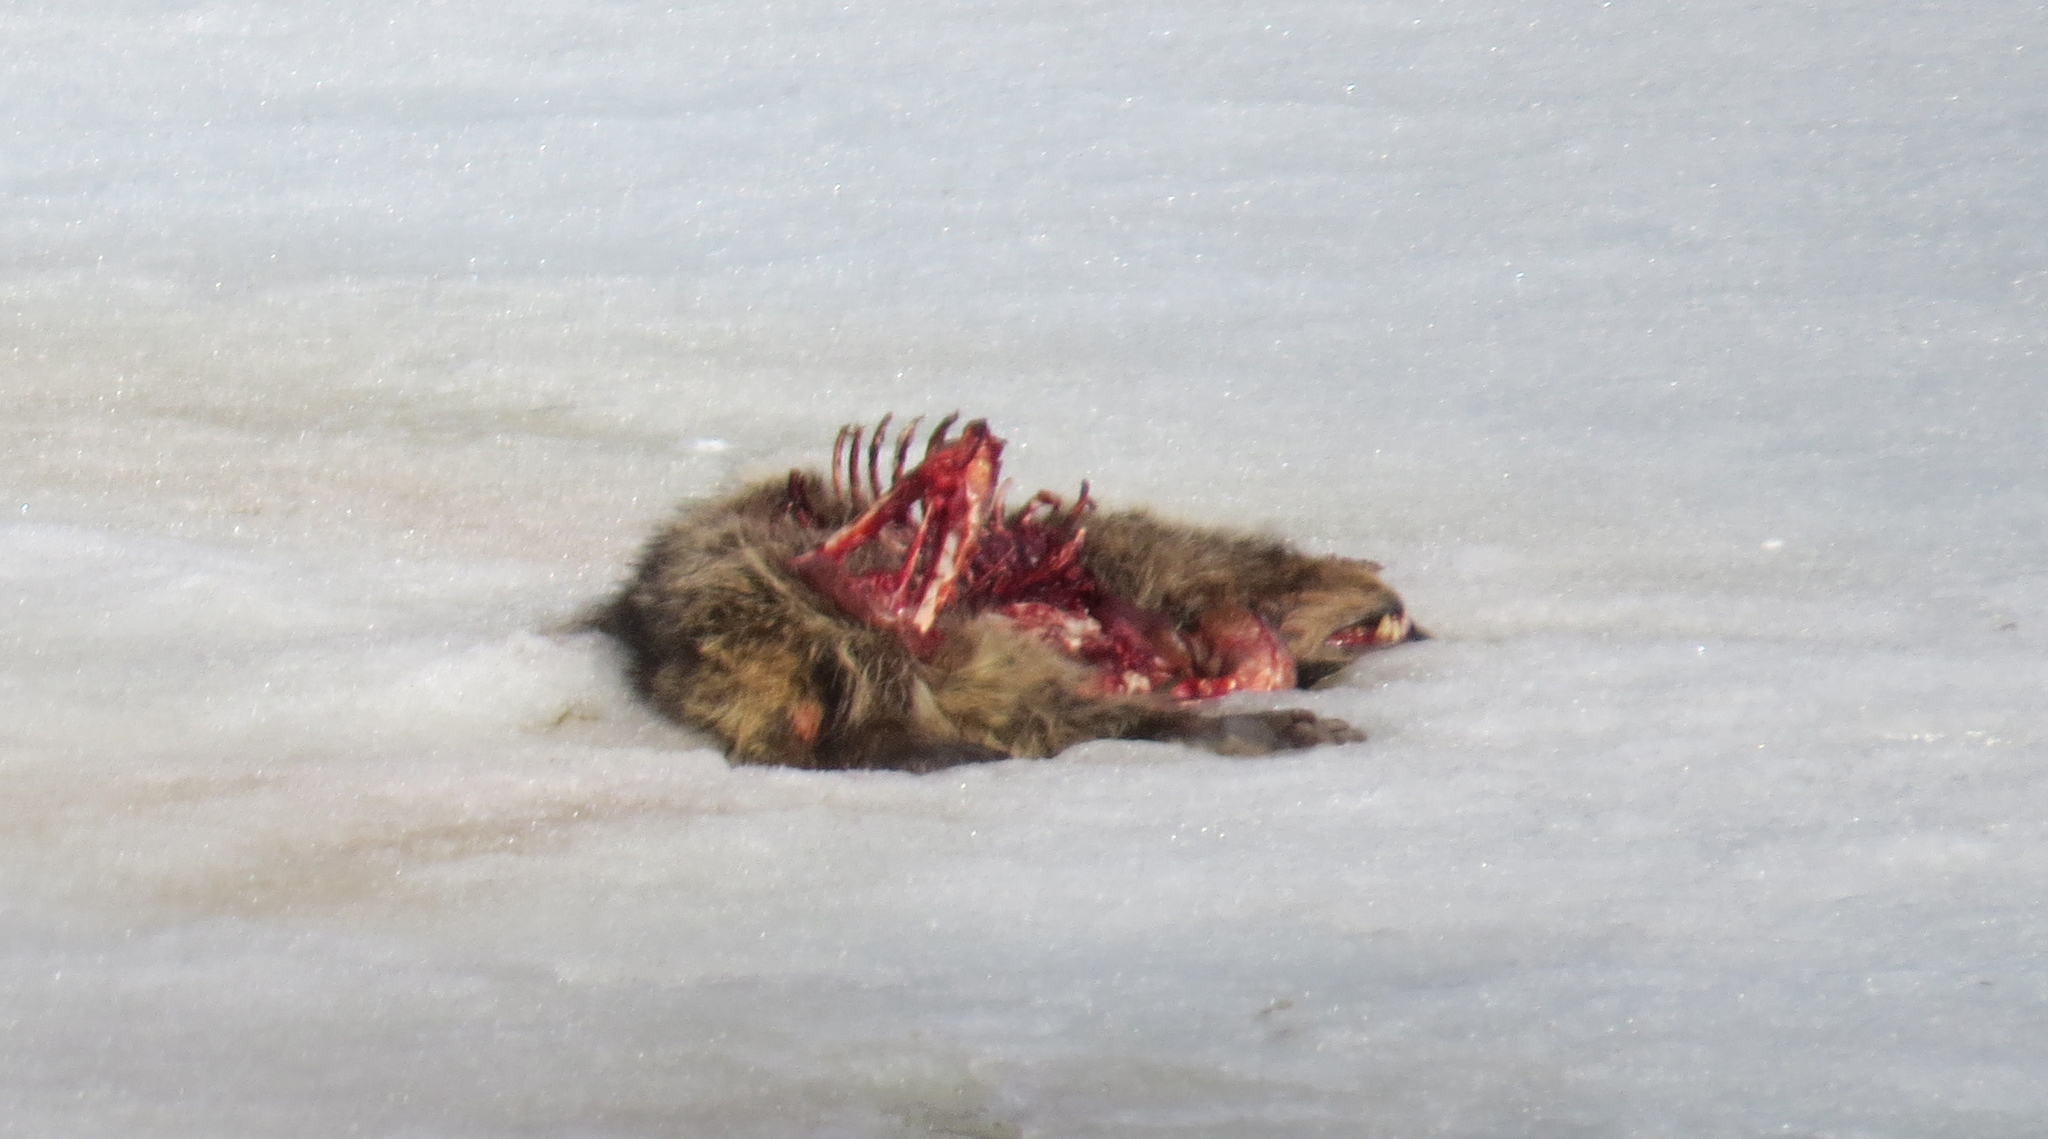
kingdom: Animalia
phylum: Chordata
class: Mammalia
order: Carnivora
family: Procyonidae
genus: Procyon
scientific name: Procyon lotor
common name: Raccoon
